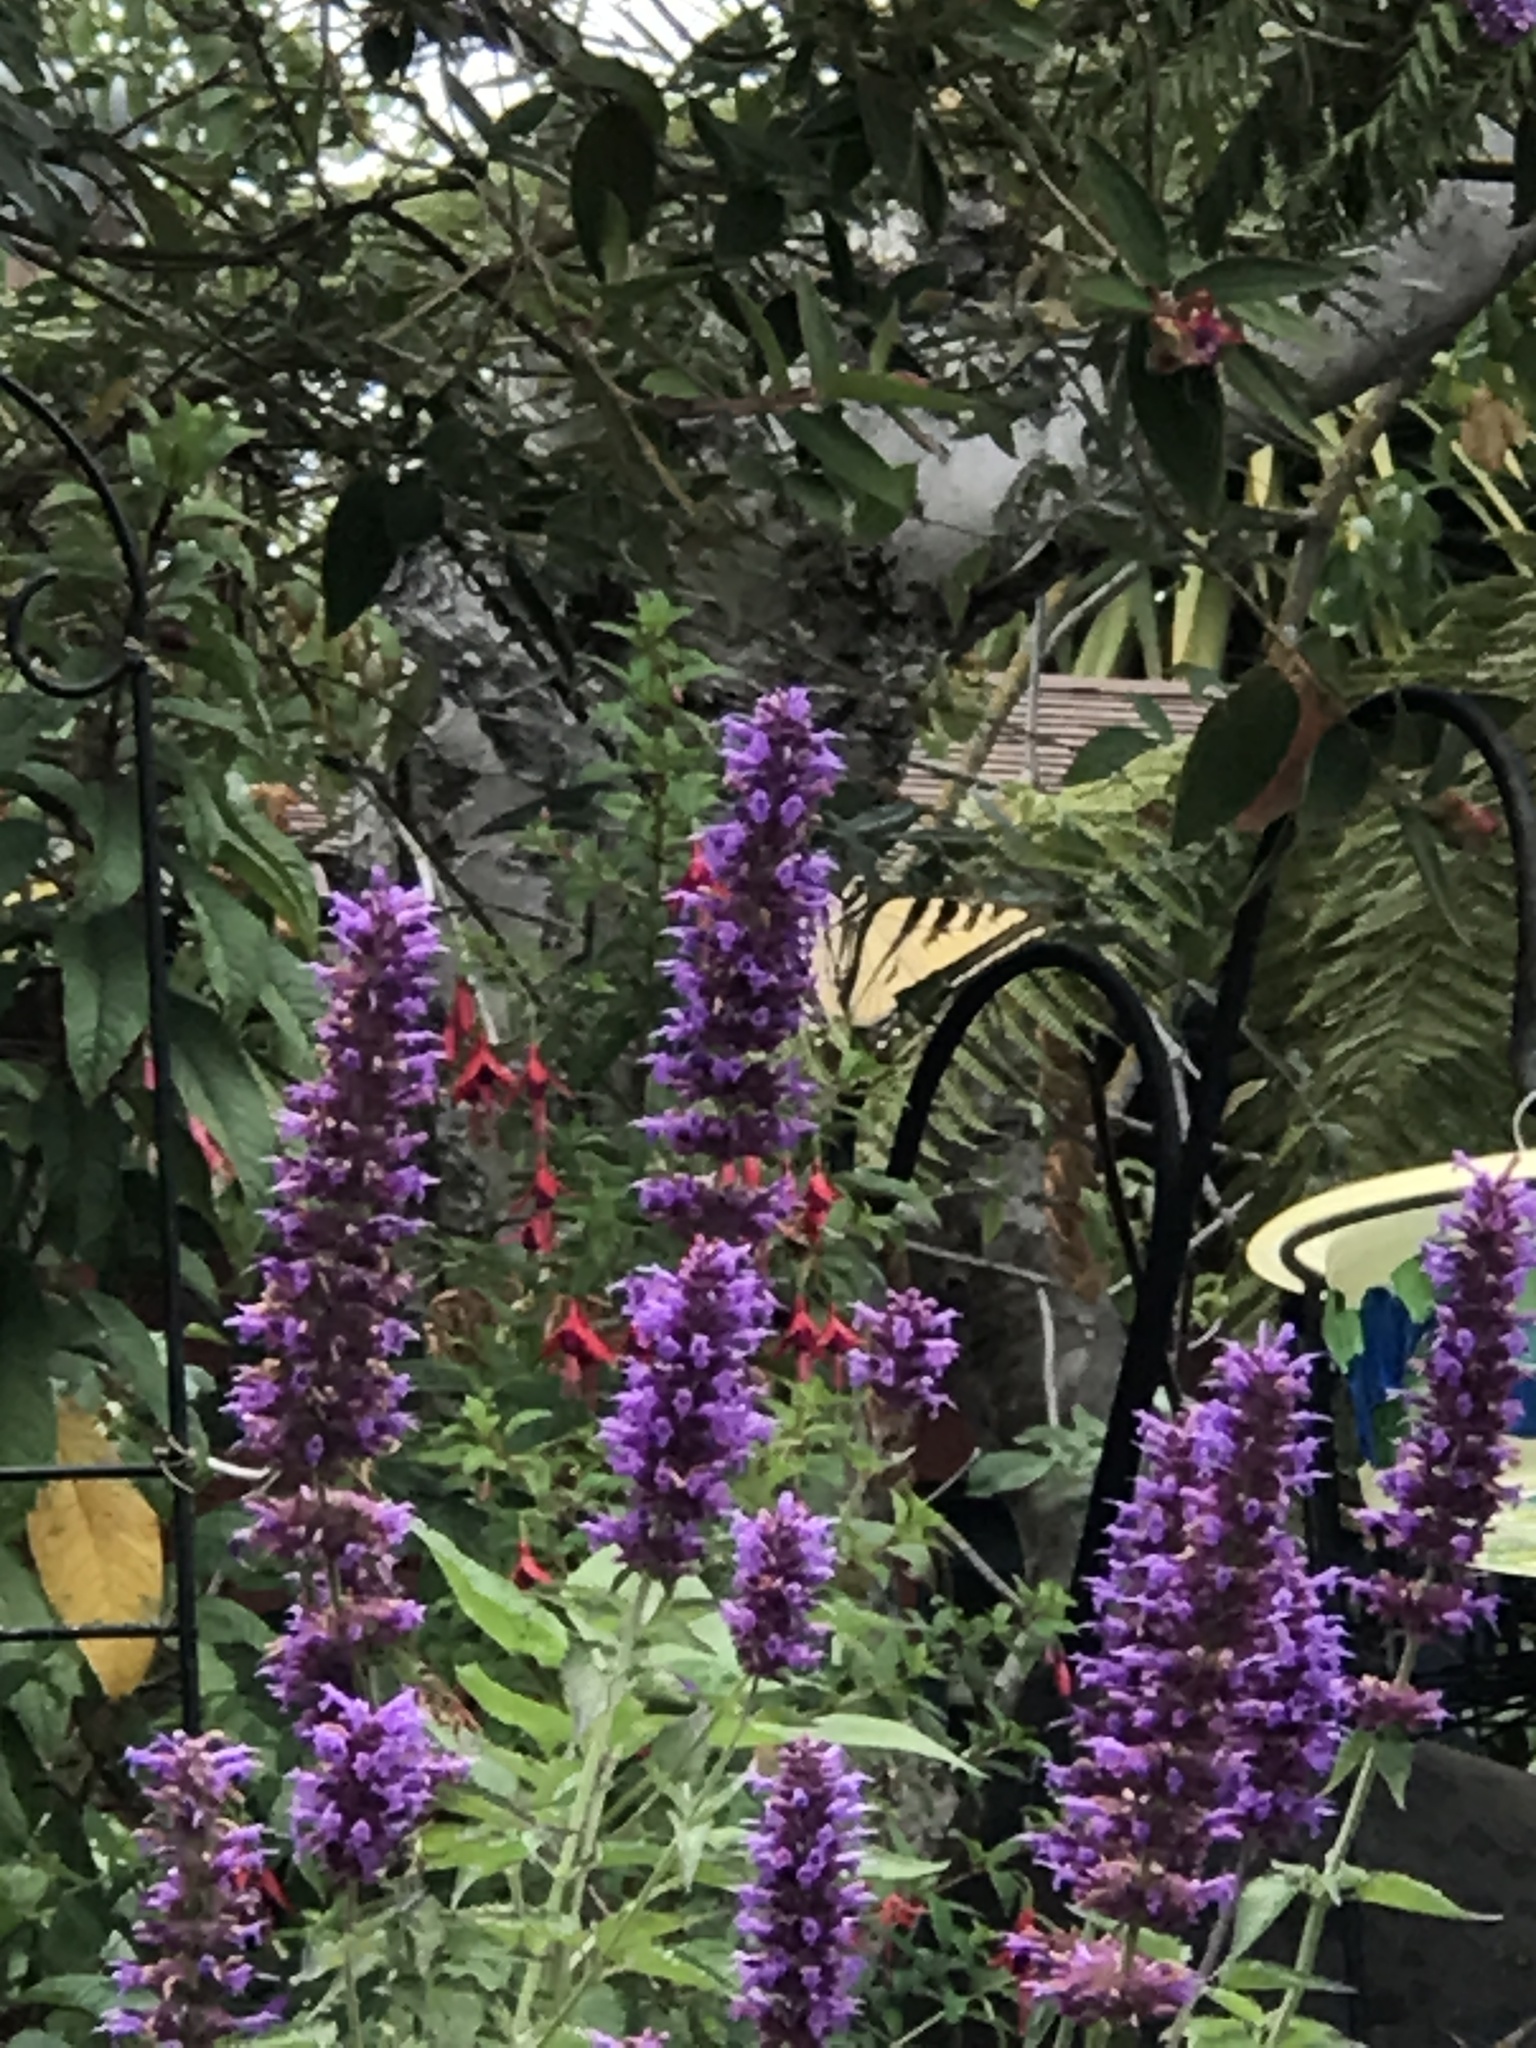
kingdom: Animalia
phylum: Arthropoda
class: Insecta
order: Lepidoptera
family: Papilionidae
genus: Papilio
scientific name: Papilio rutulus
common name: Western tiger swallowtail
